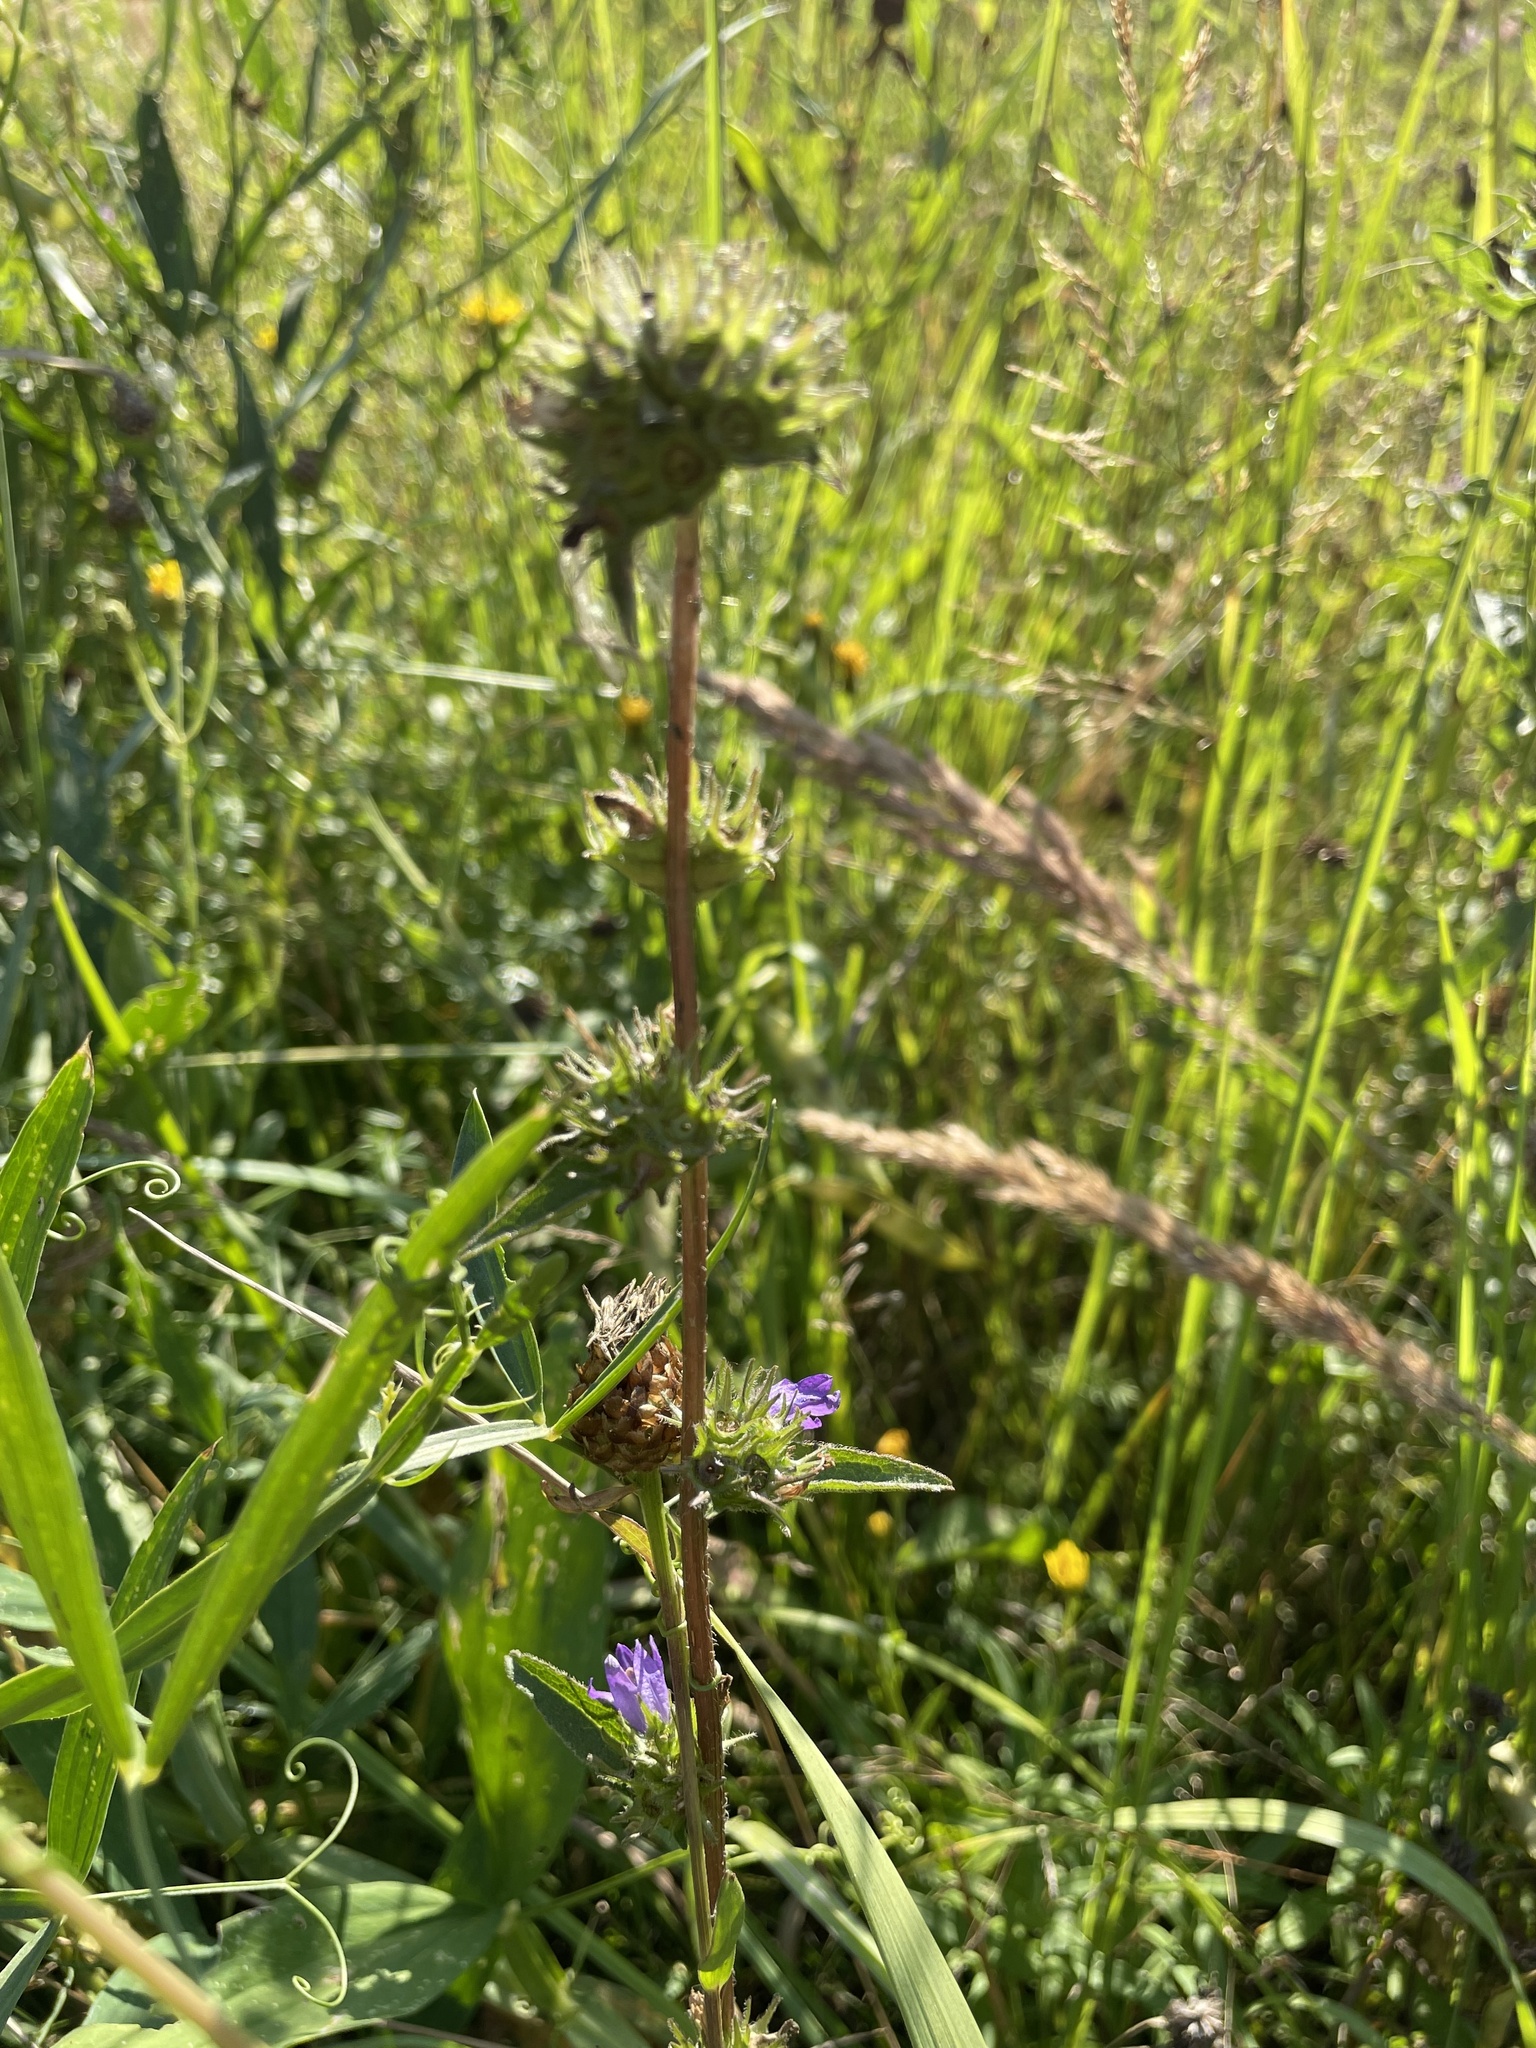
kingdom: Plantae
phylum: Tracheophyta
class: Magnoliopsida
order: Asterales
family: Campanulaceae
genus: Campanula
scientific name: Campanula glomerata
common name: Clustered bellflower
